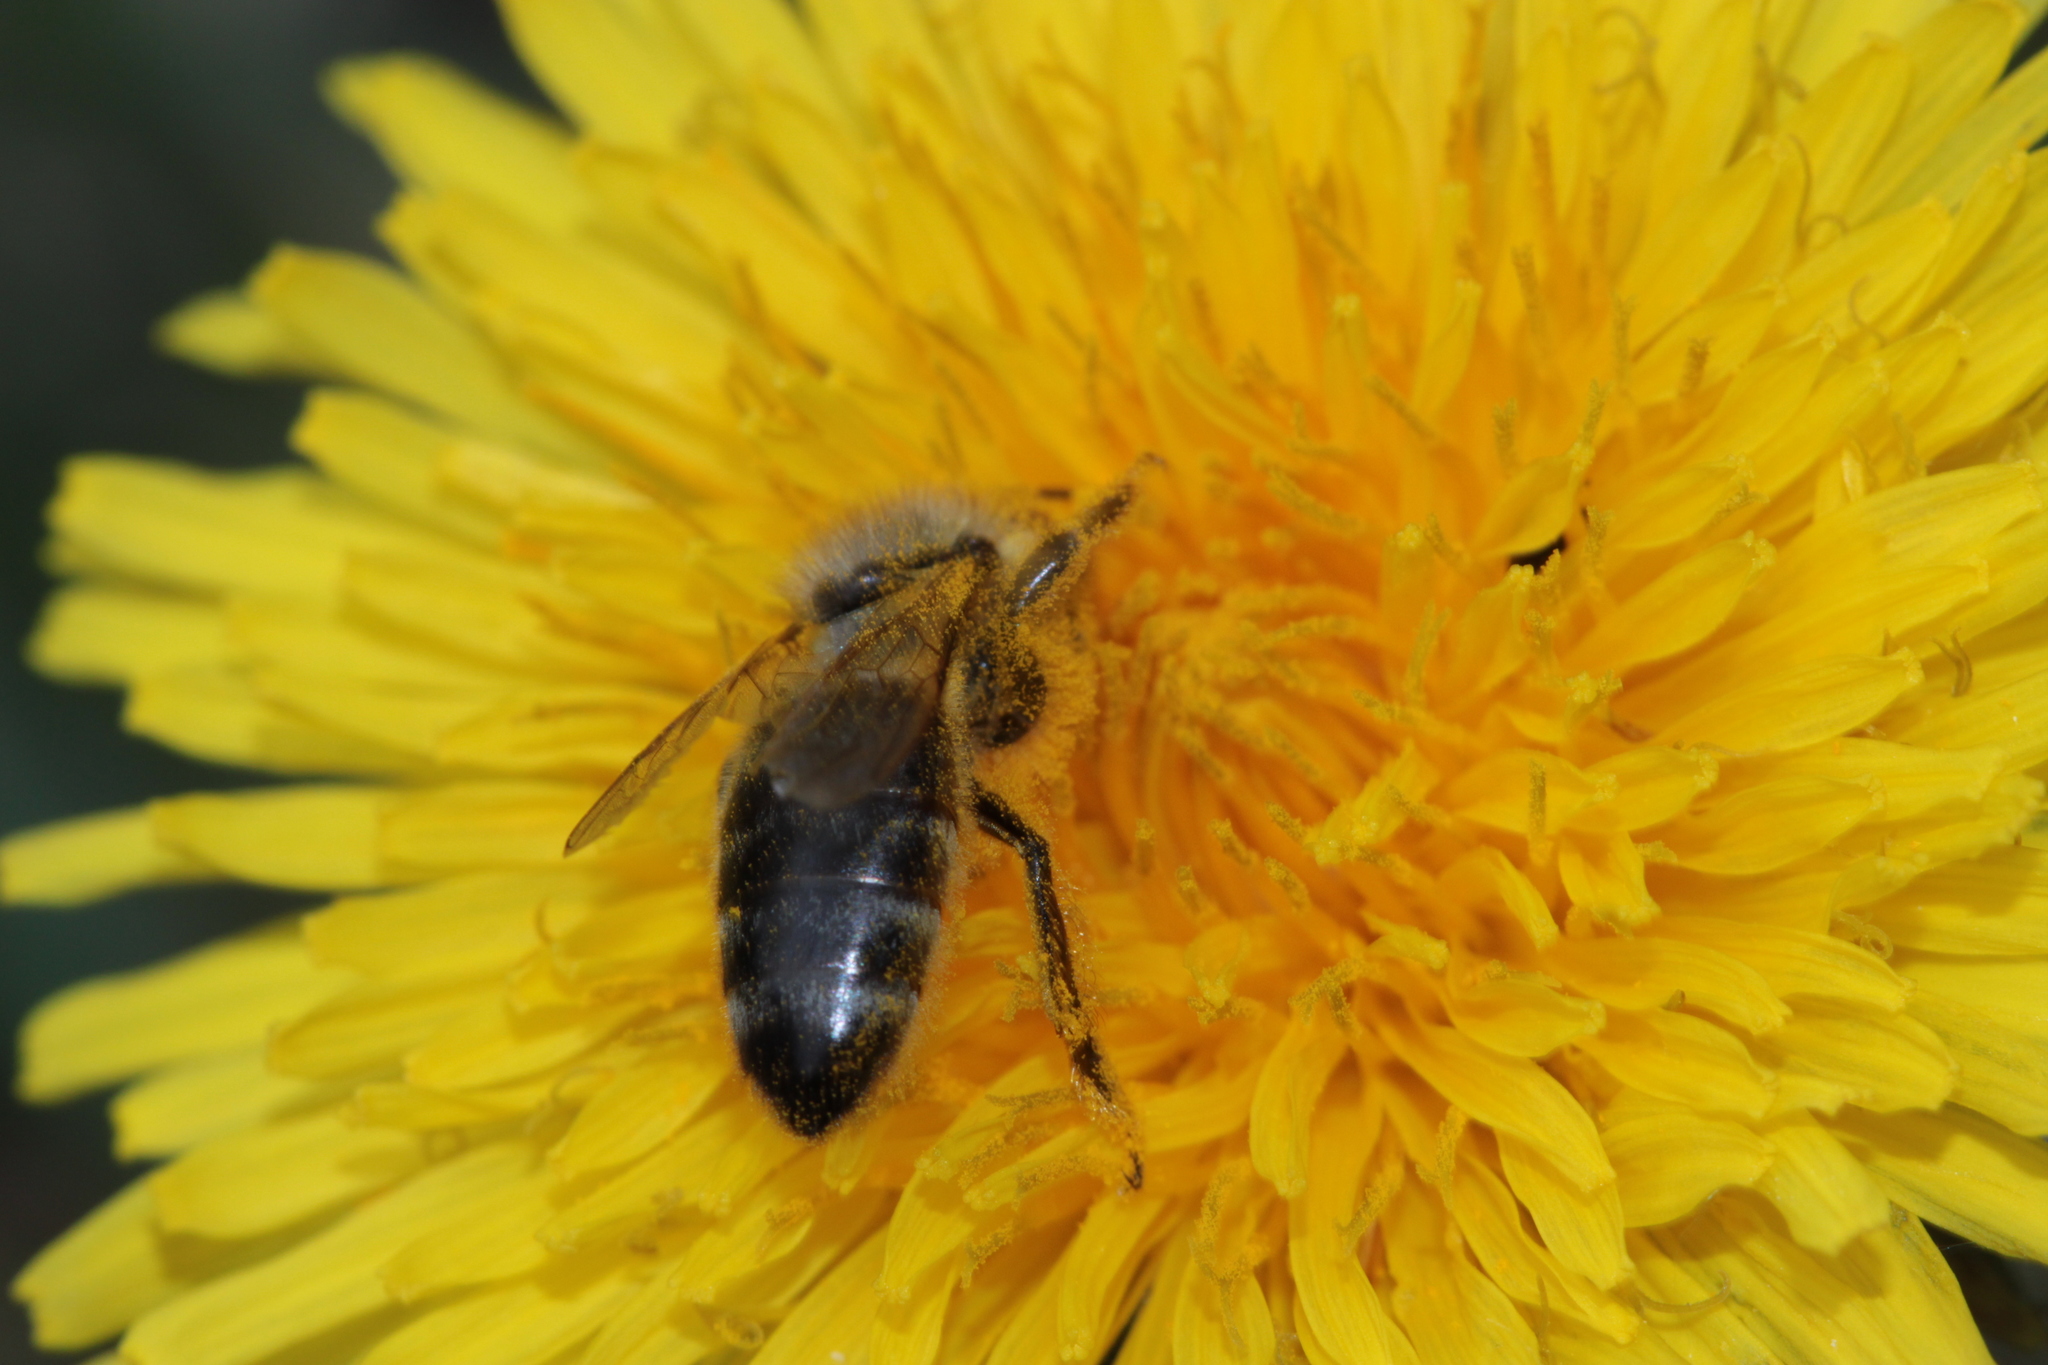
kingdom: Animalia
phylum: Arthropoda
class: Insecta
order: Hymenoptera
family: Apidae
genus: Apis
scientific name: Apis mellifera
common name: Honey bee
